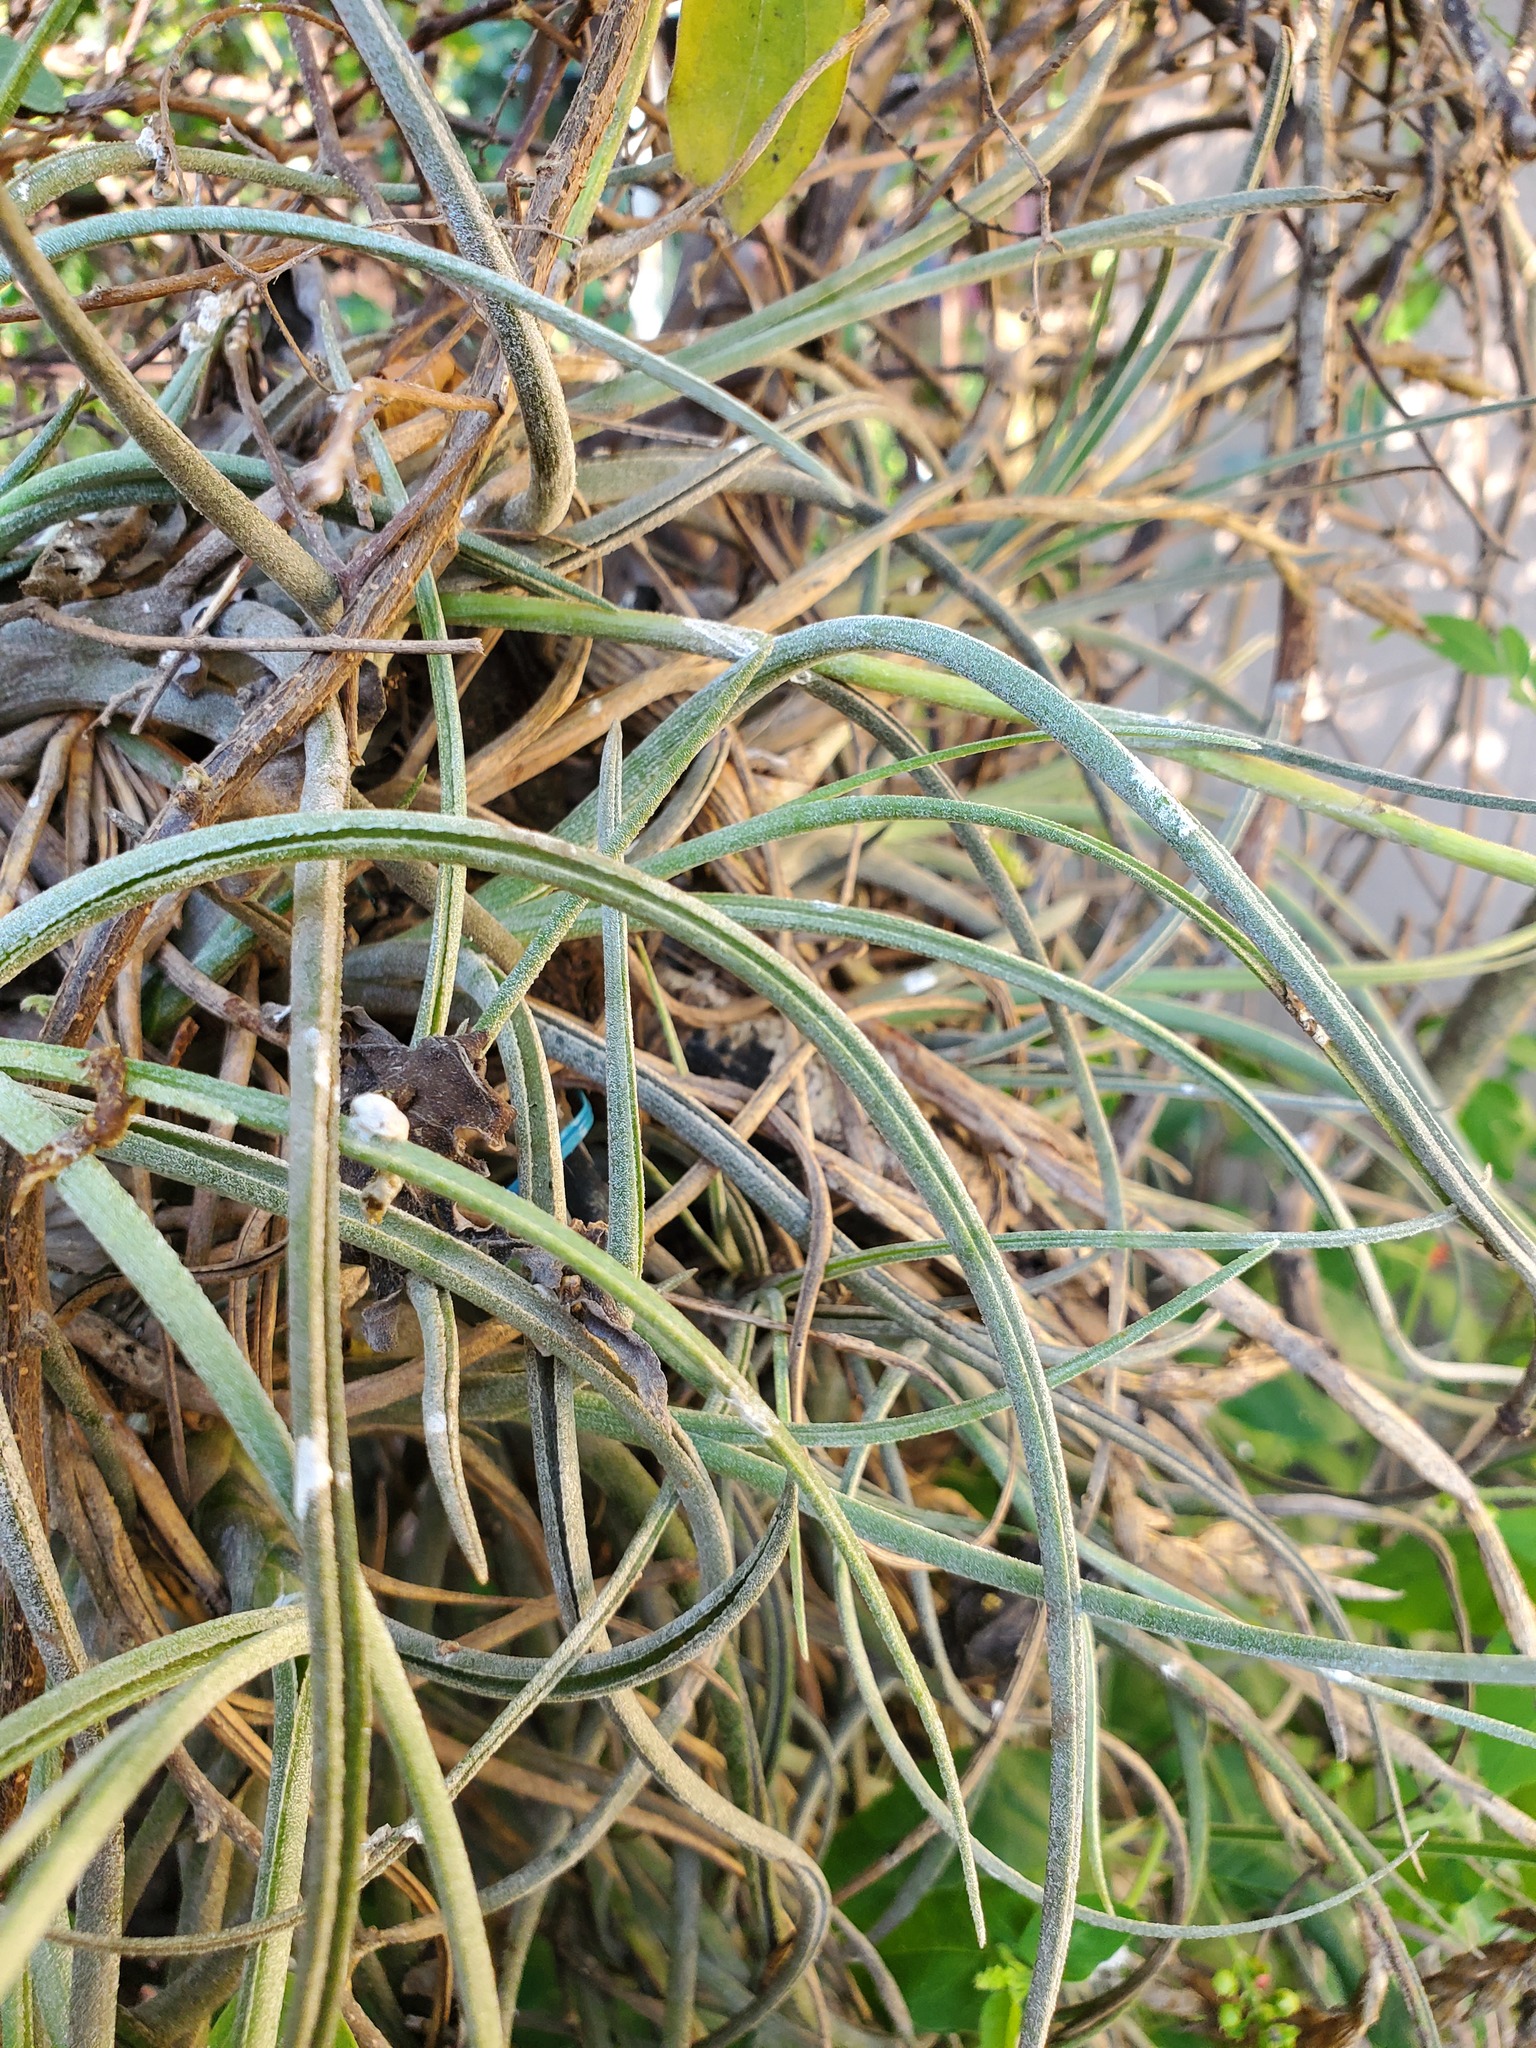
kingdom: Plantae
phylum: Tracheophyta
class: Liliopsida
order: Poales
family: Bromeliaceae
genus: Tillandsia
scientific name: Tillandsia baileyi
